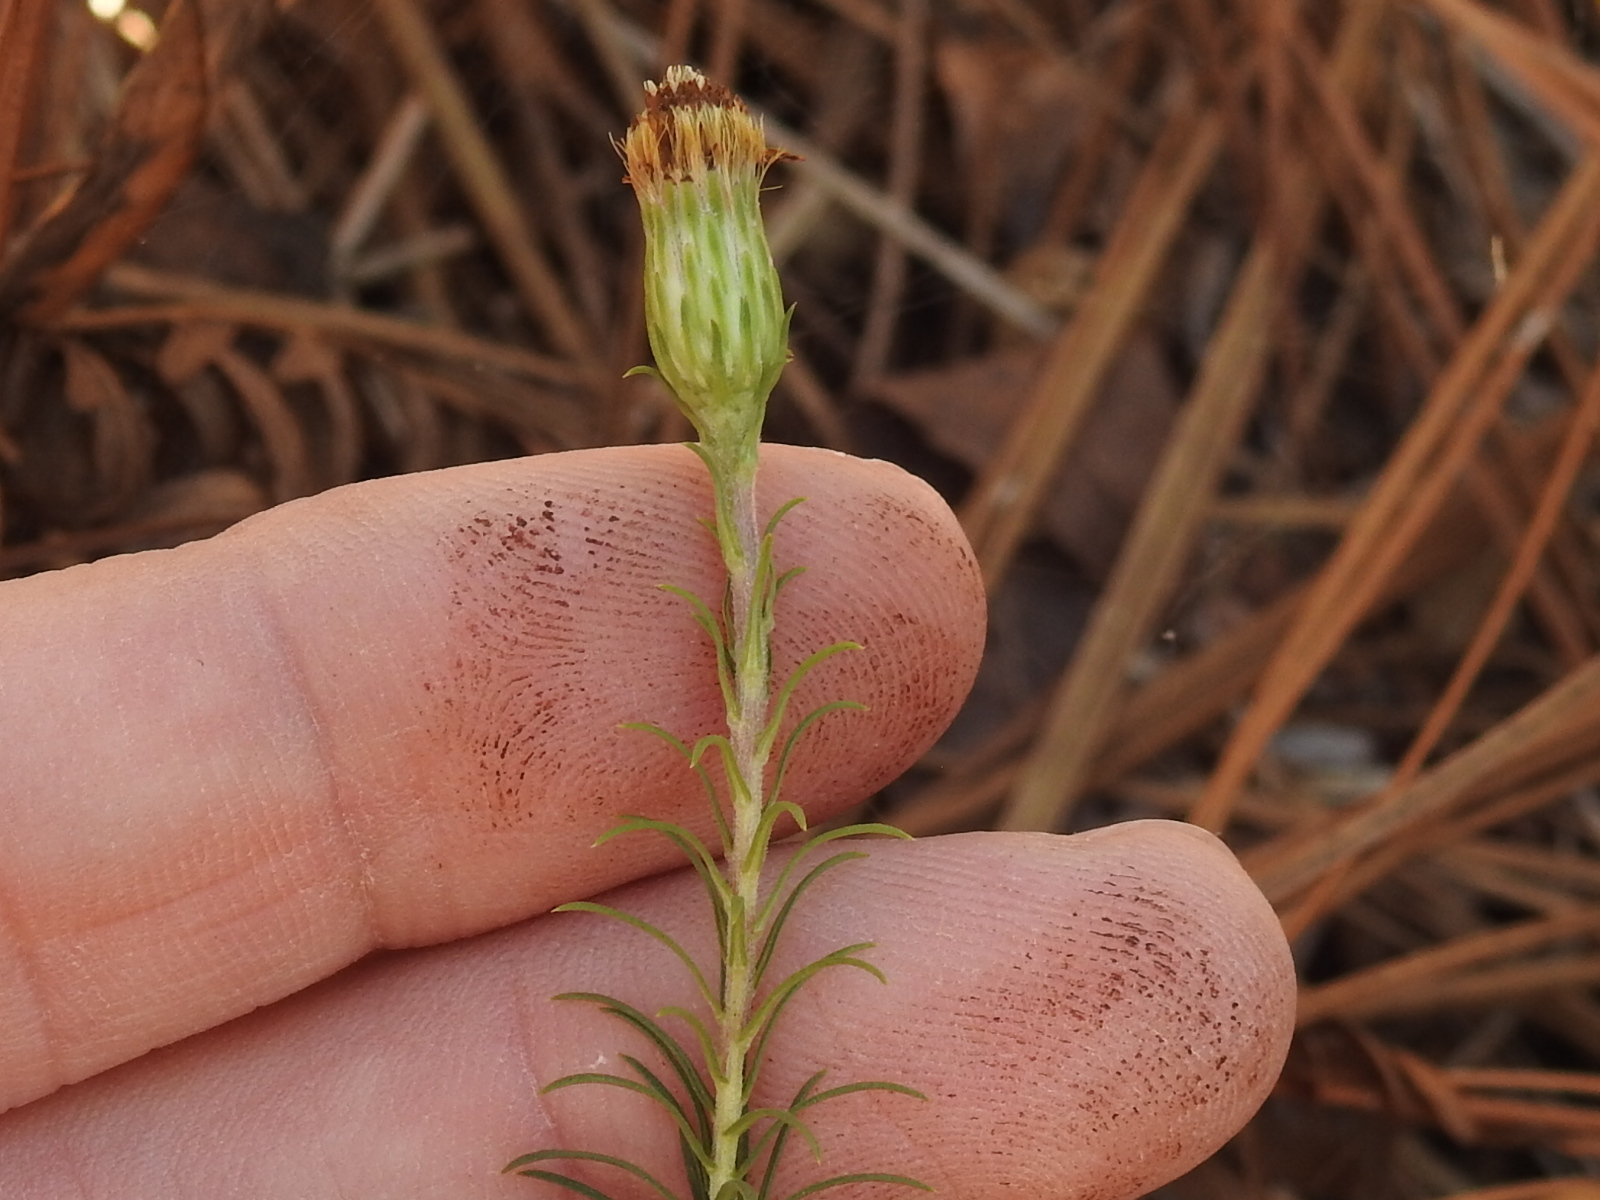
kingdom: Plantae
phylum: Tracheophyta
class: Magnoliopsida
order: Asterales
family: Asteraceae
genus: Ionactis
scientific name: Ionactis linariifolia
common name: Flax-leaf aster
